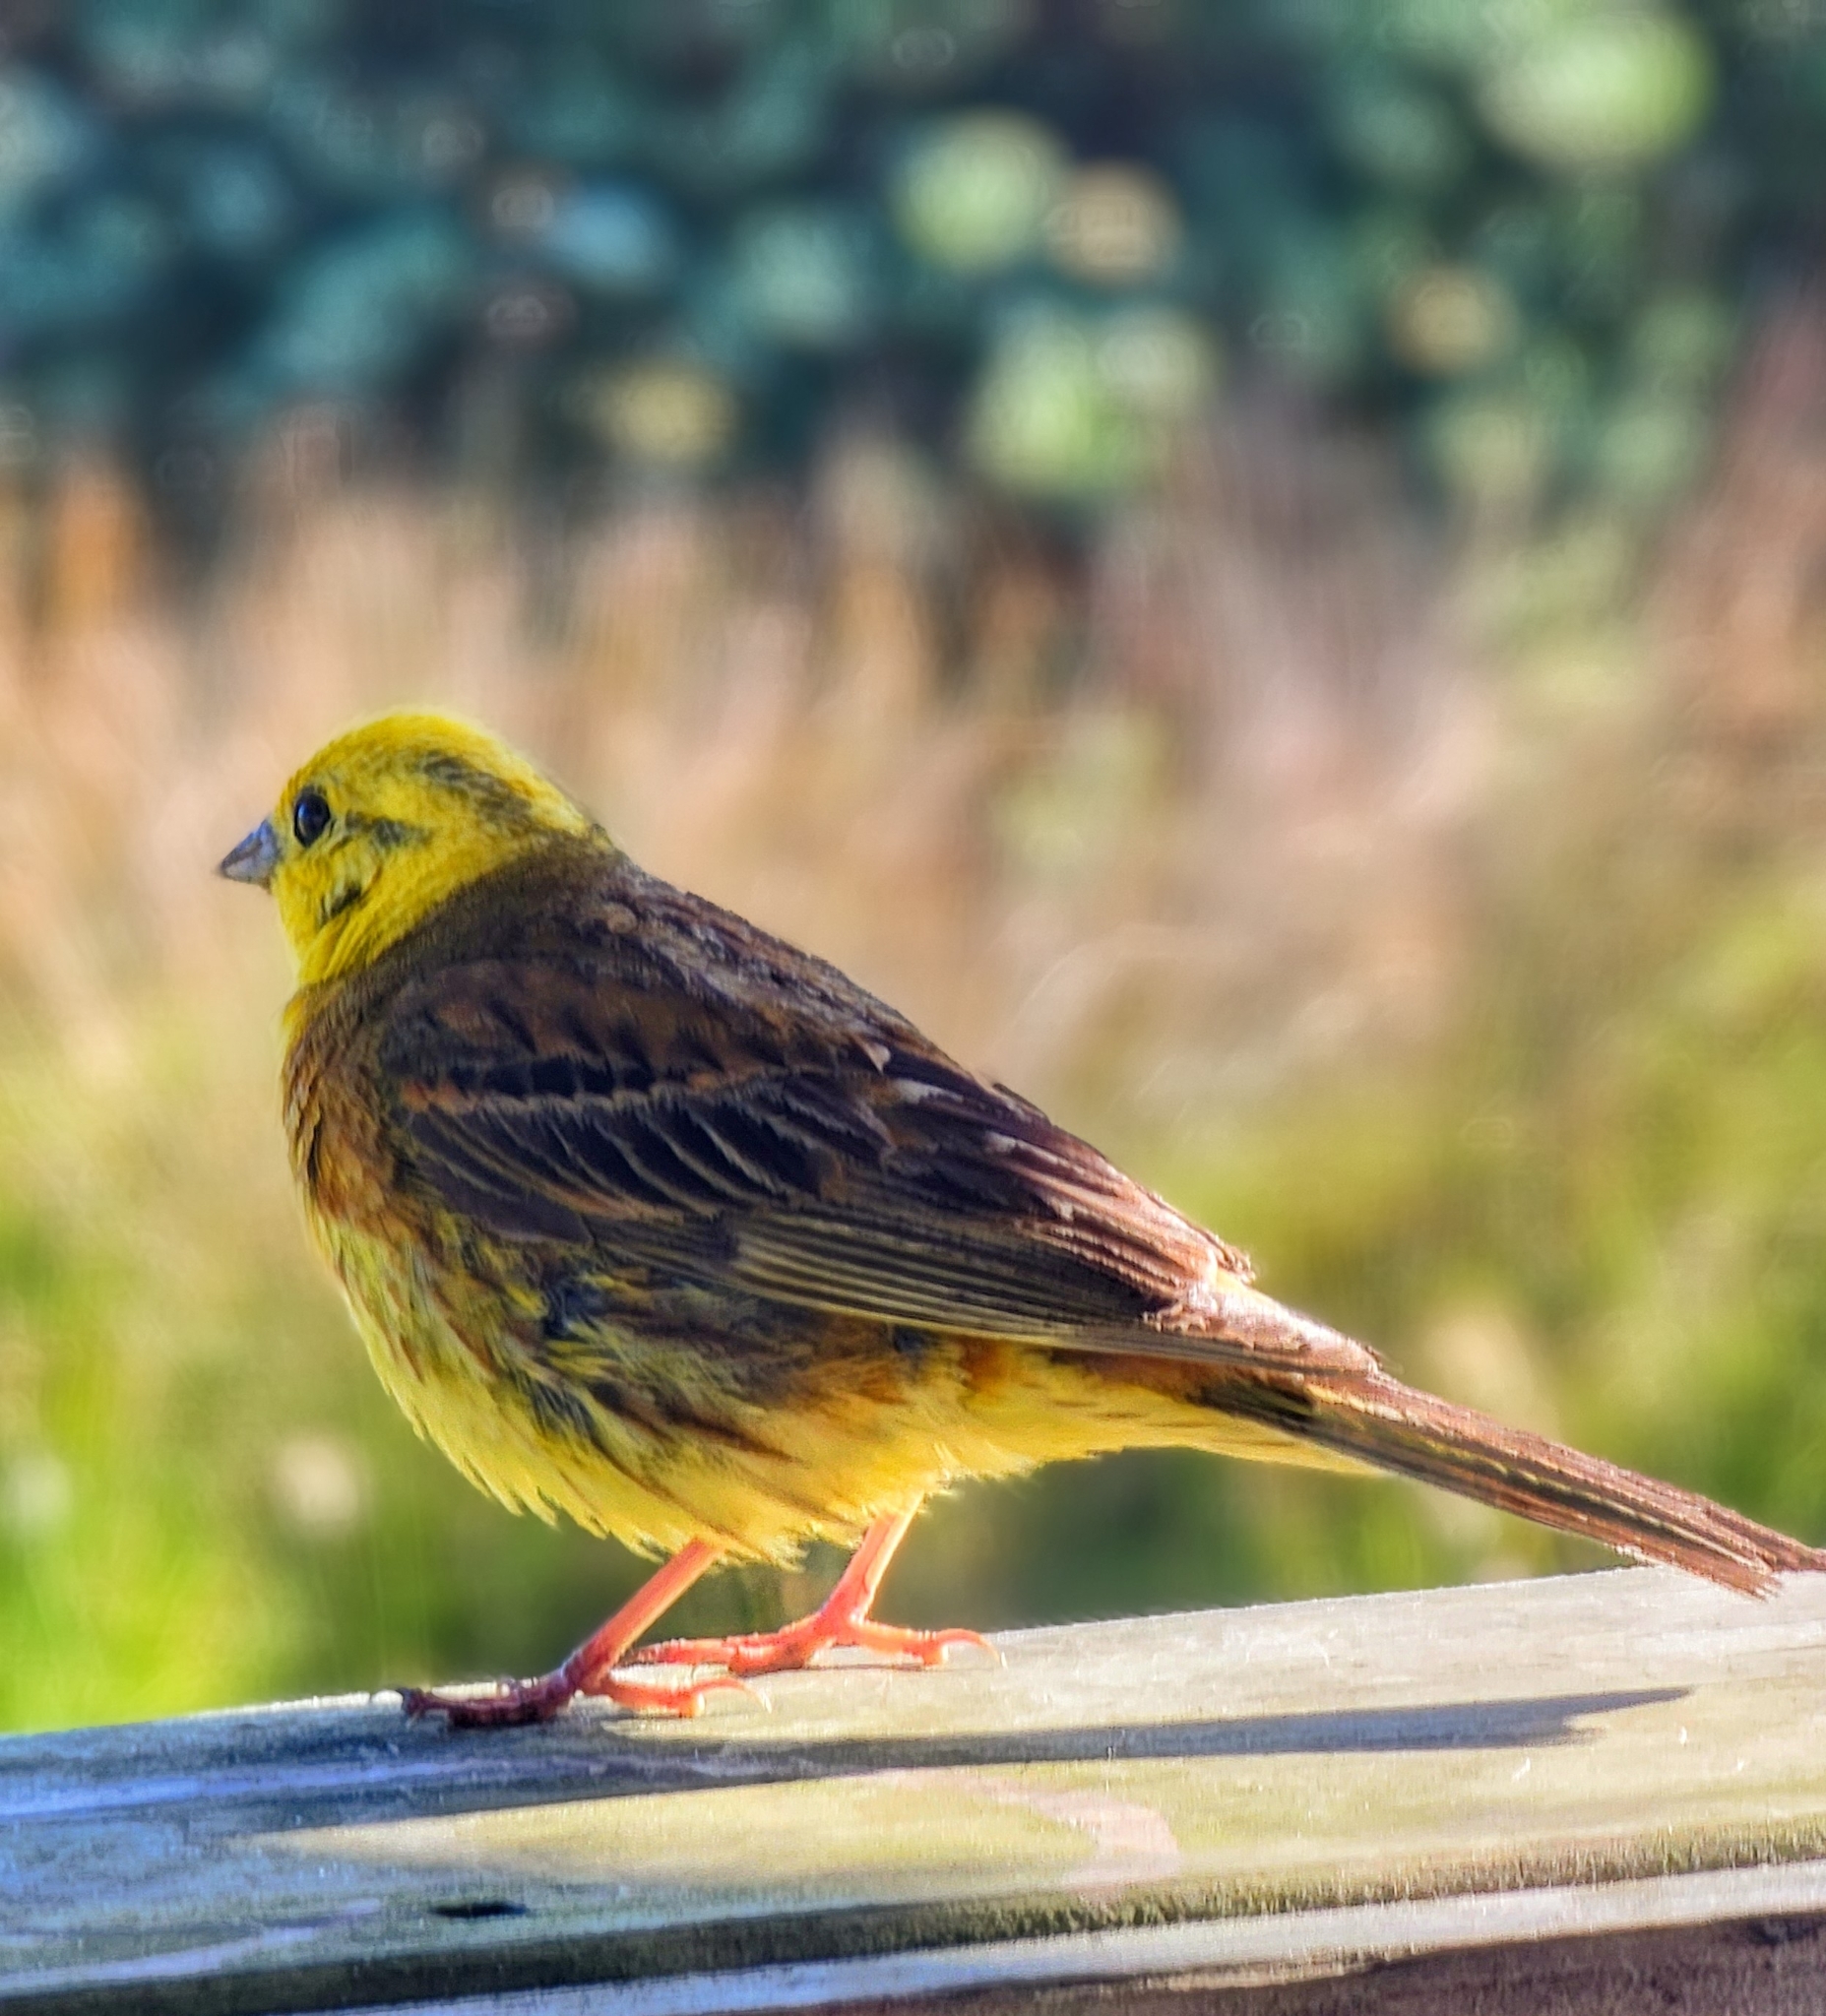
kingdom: Animalia
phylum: Chordata
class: Aves
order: Passeriformes
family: Emberizidae
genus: Emberiza
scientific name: Emberiza citrinella
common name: Yellowhammer
